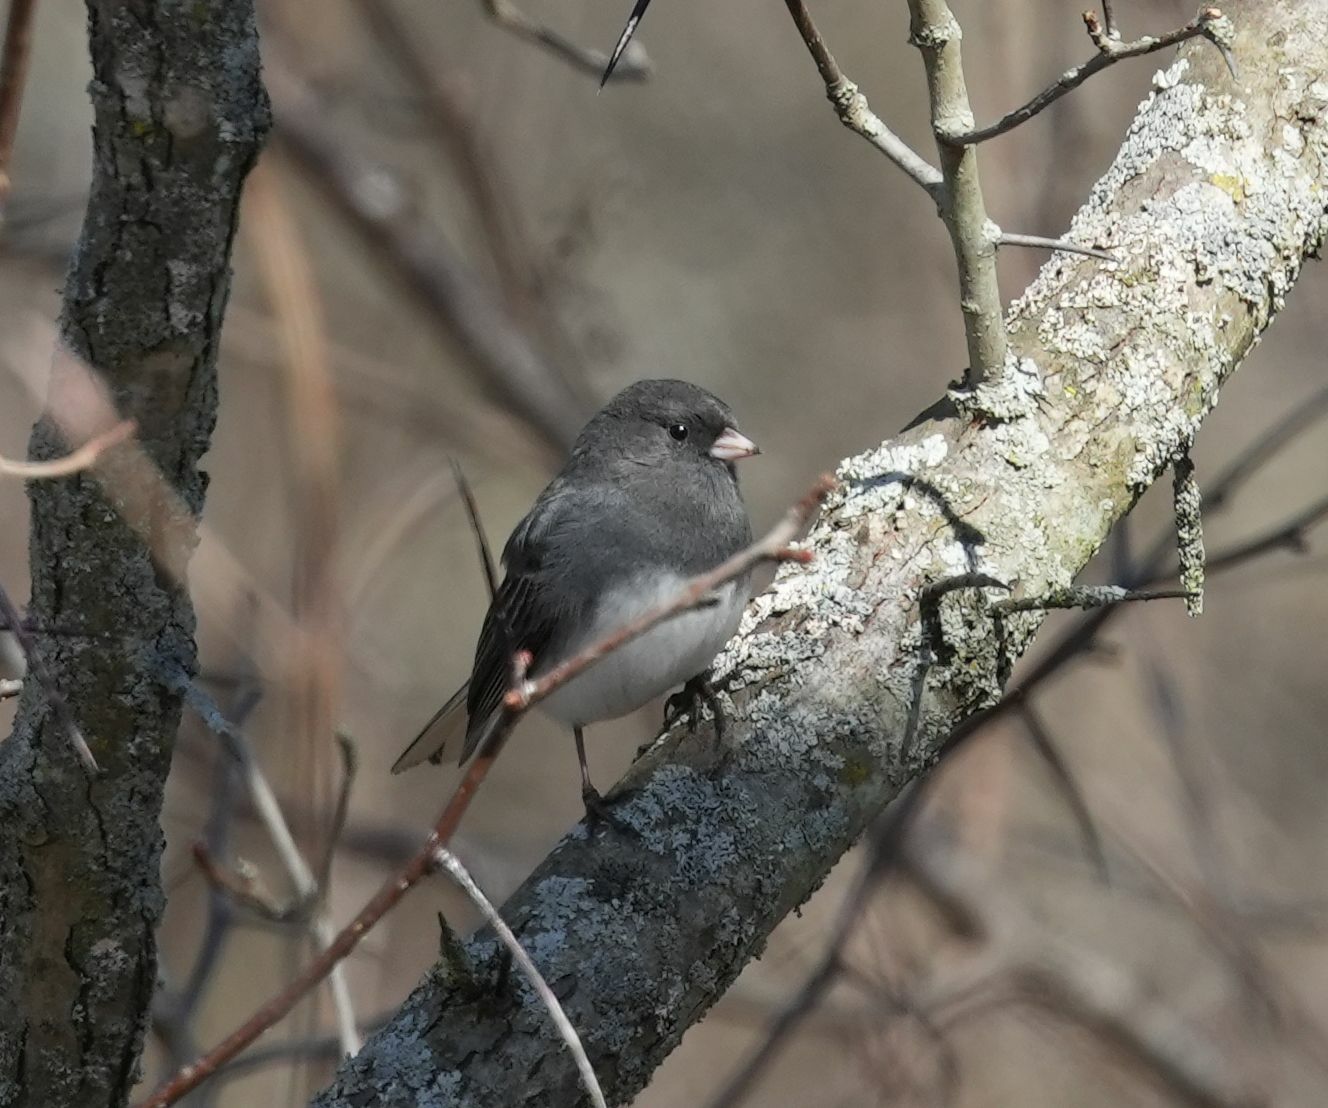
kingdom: Animalia
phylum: Chordata
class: Aves
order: Passeriformes
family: Passerellidae
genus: Junco
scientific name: Junco hyemalis
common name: Dark-eyed junco
